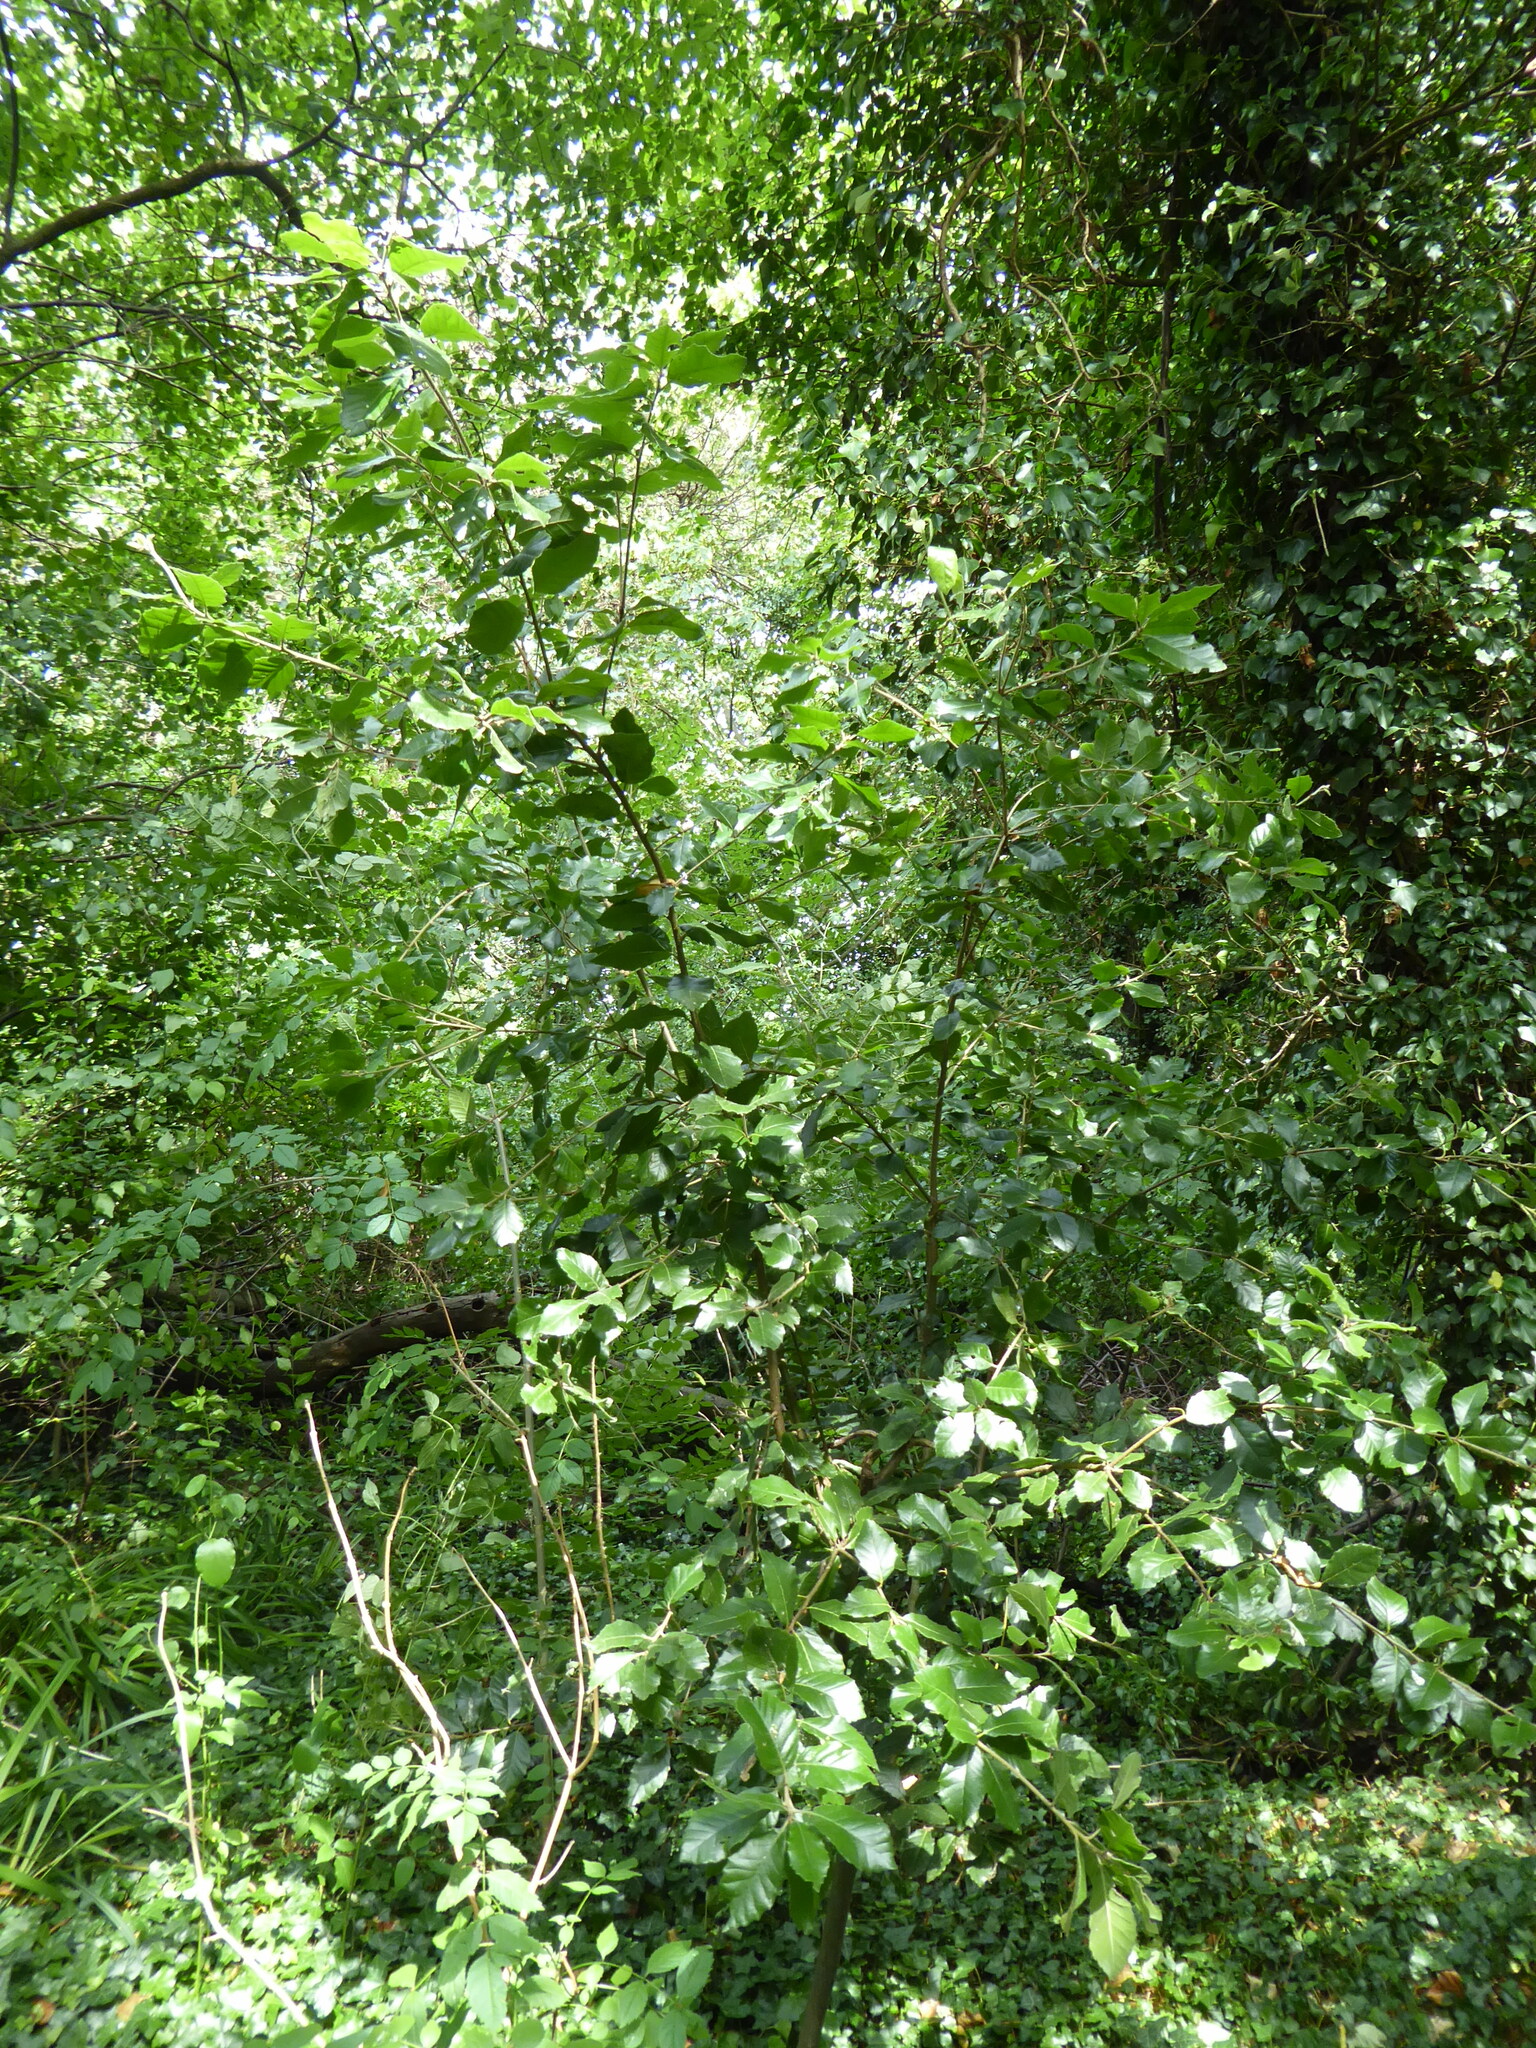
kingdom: Plantae
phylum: Tracheophyta
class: Magnoliopsida
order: Fagales
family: Fagaceae
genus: Quercus
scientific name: Quercus ilex
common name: Evergreen oak
